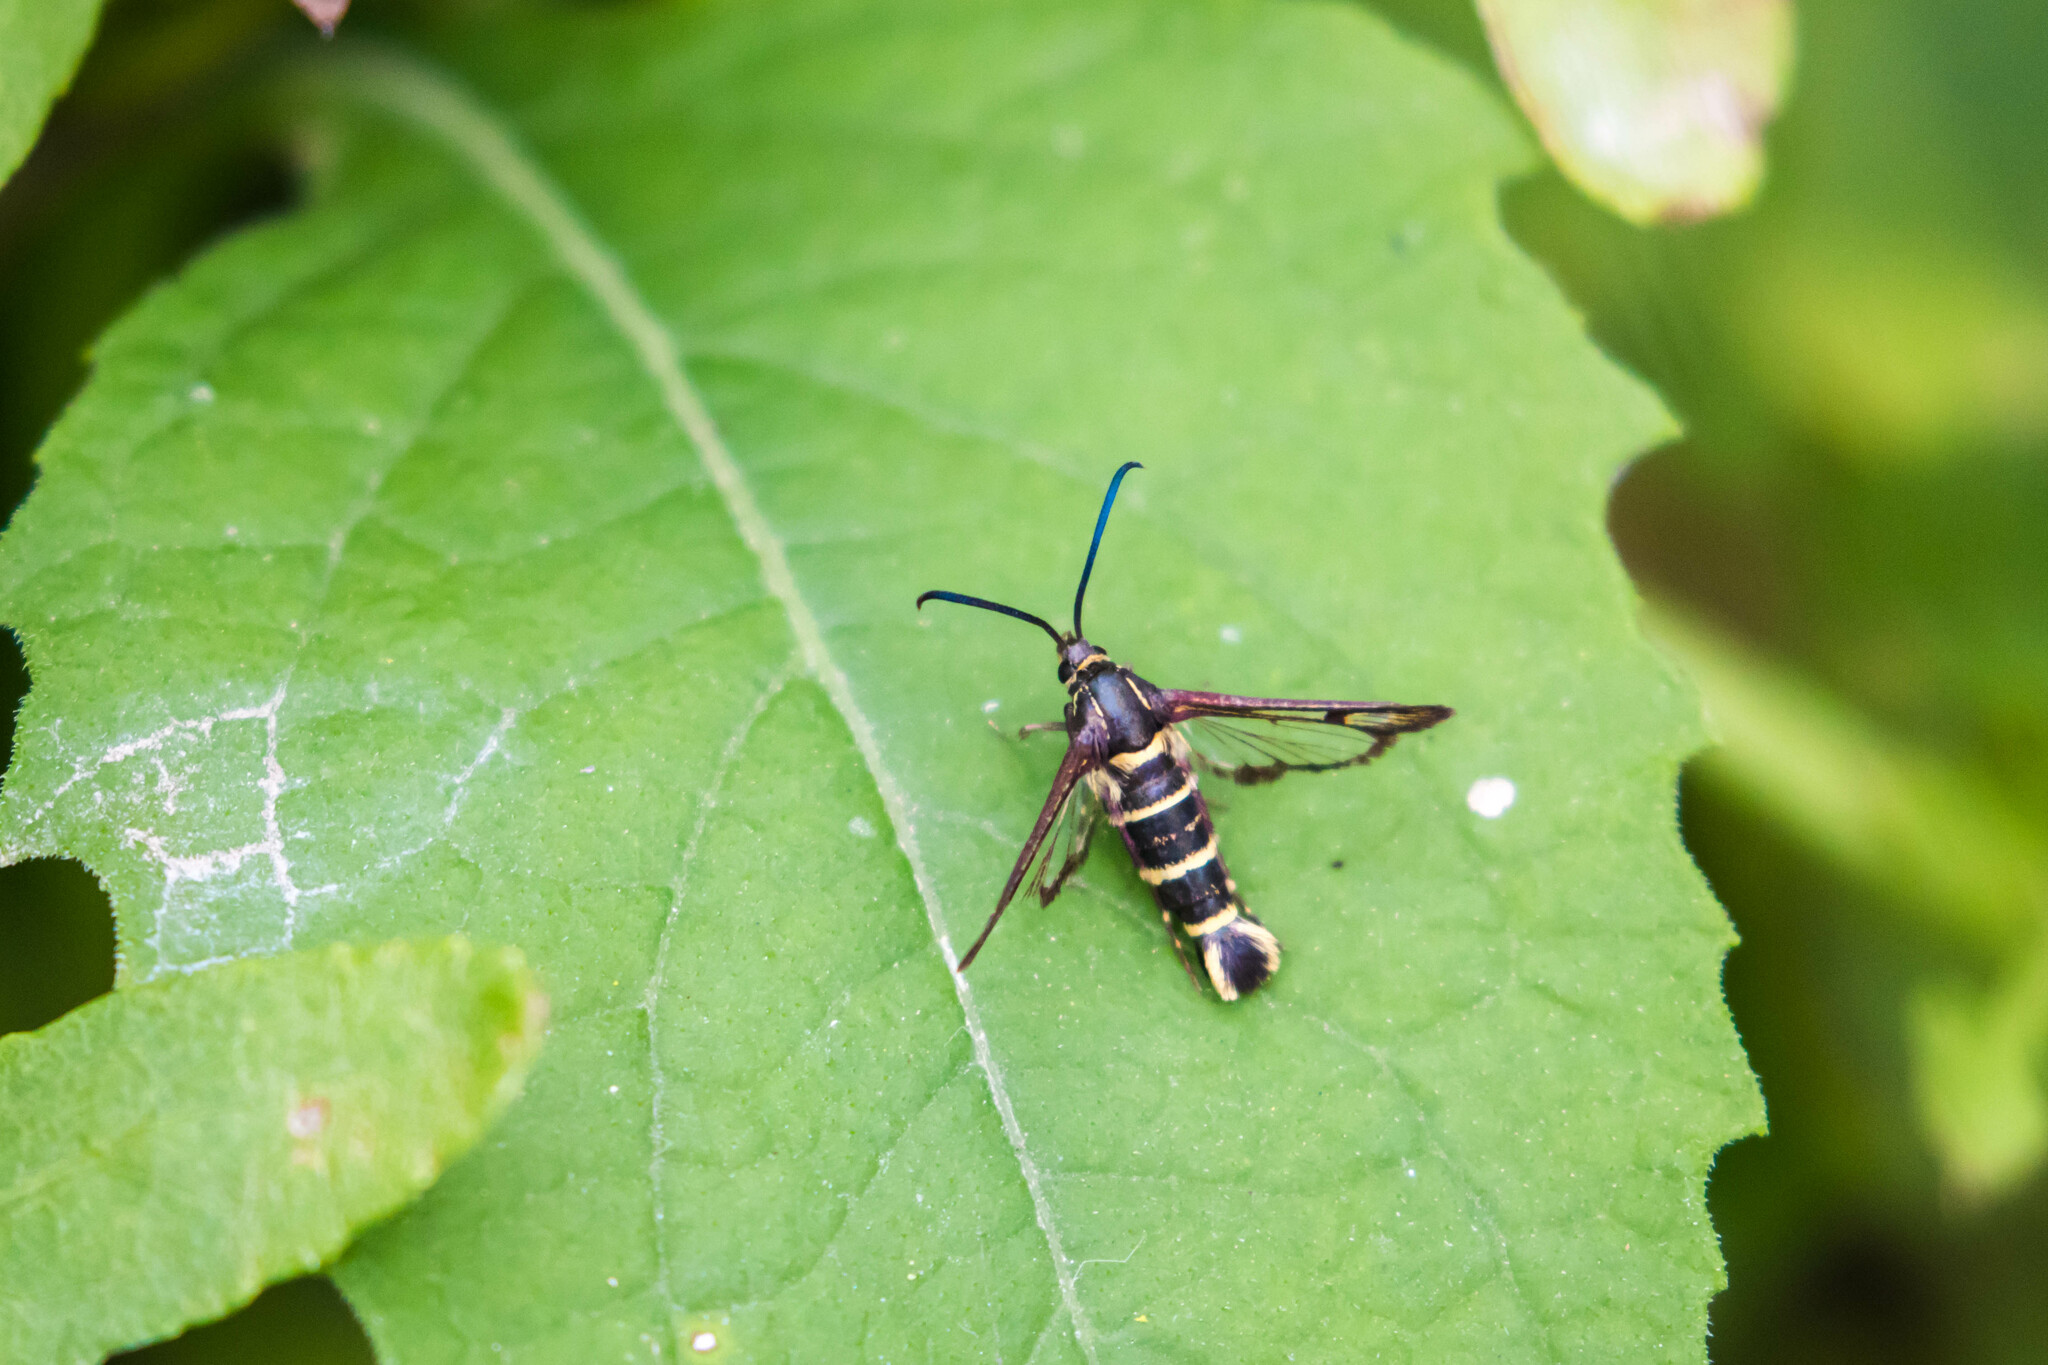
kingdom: Animalia
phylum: Arthropoda
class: Insecta
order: Lepidoptera
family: Sesiidae
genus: Carmenta
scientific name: Carmenta tildeni
